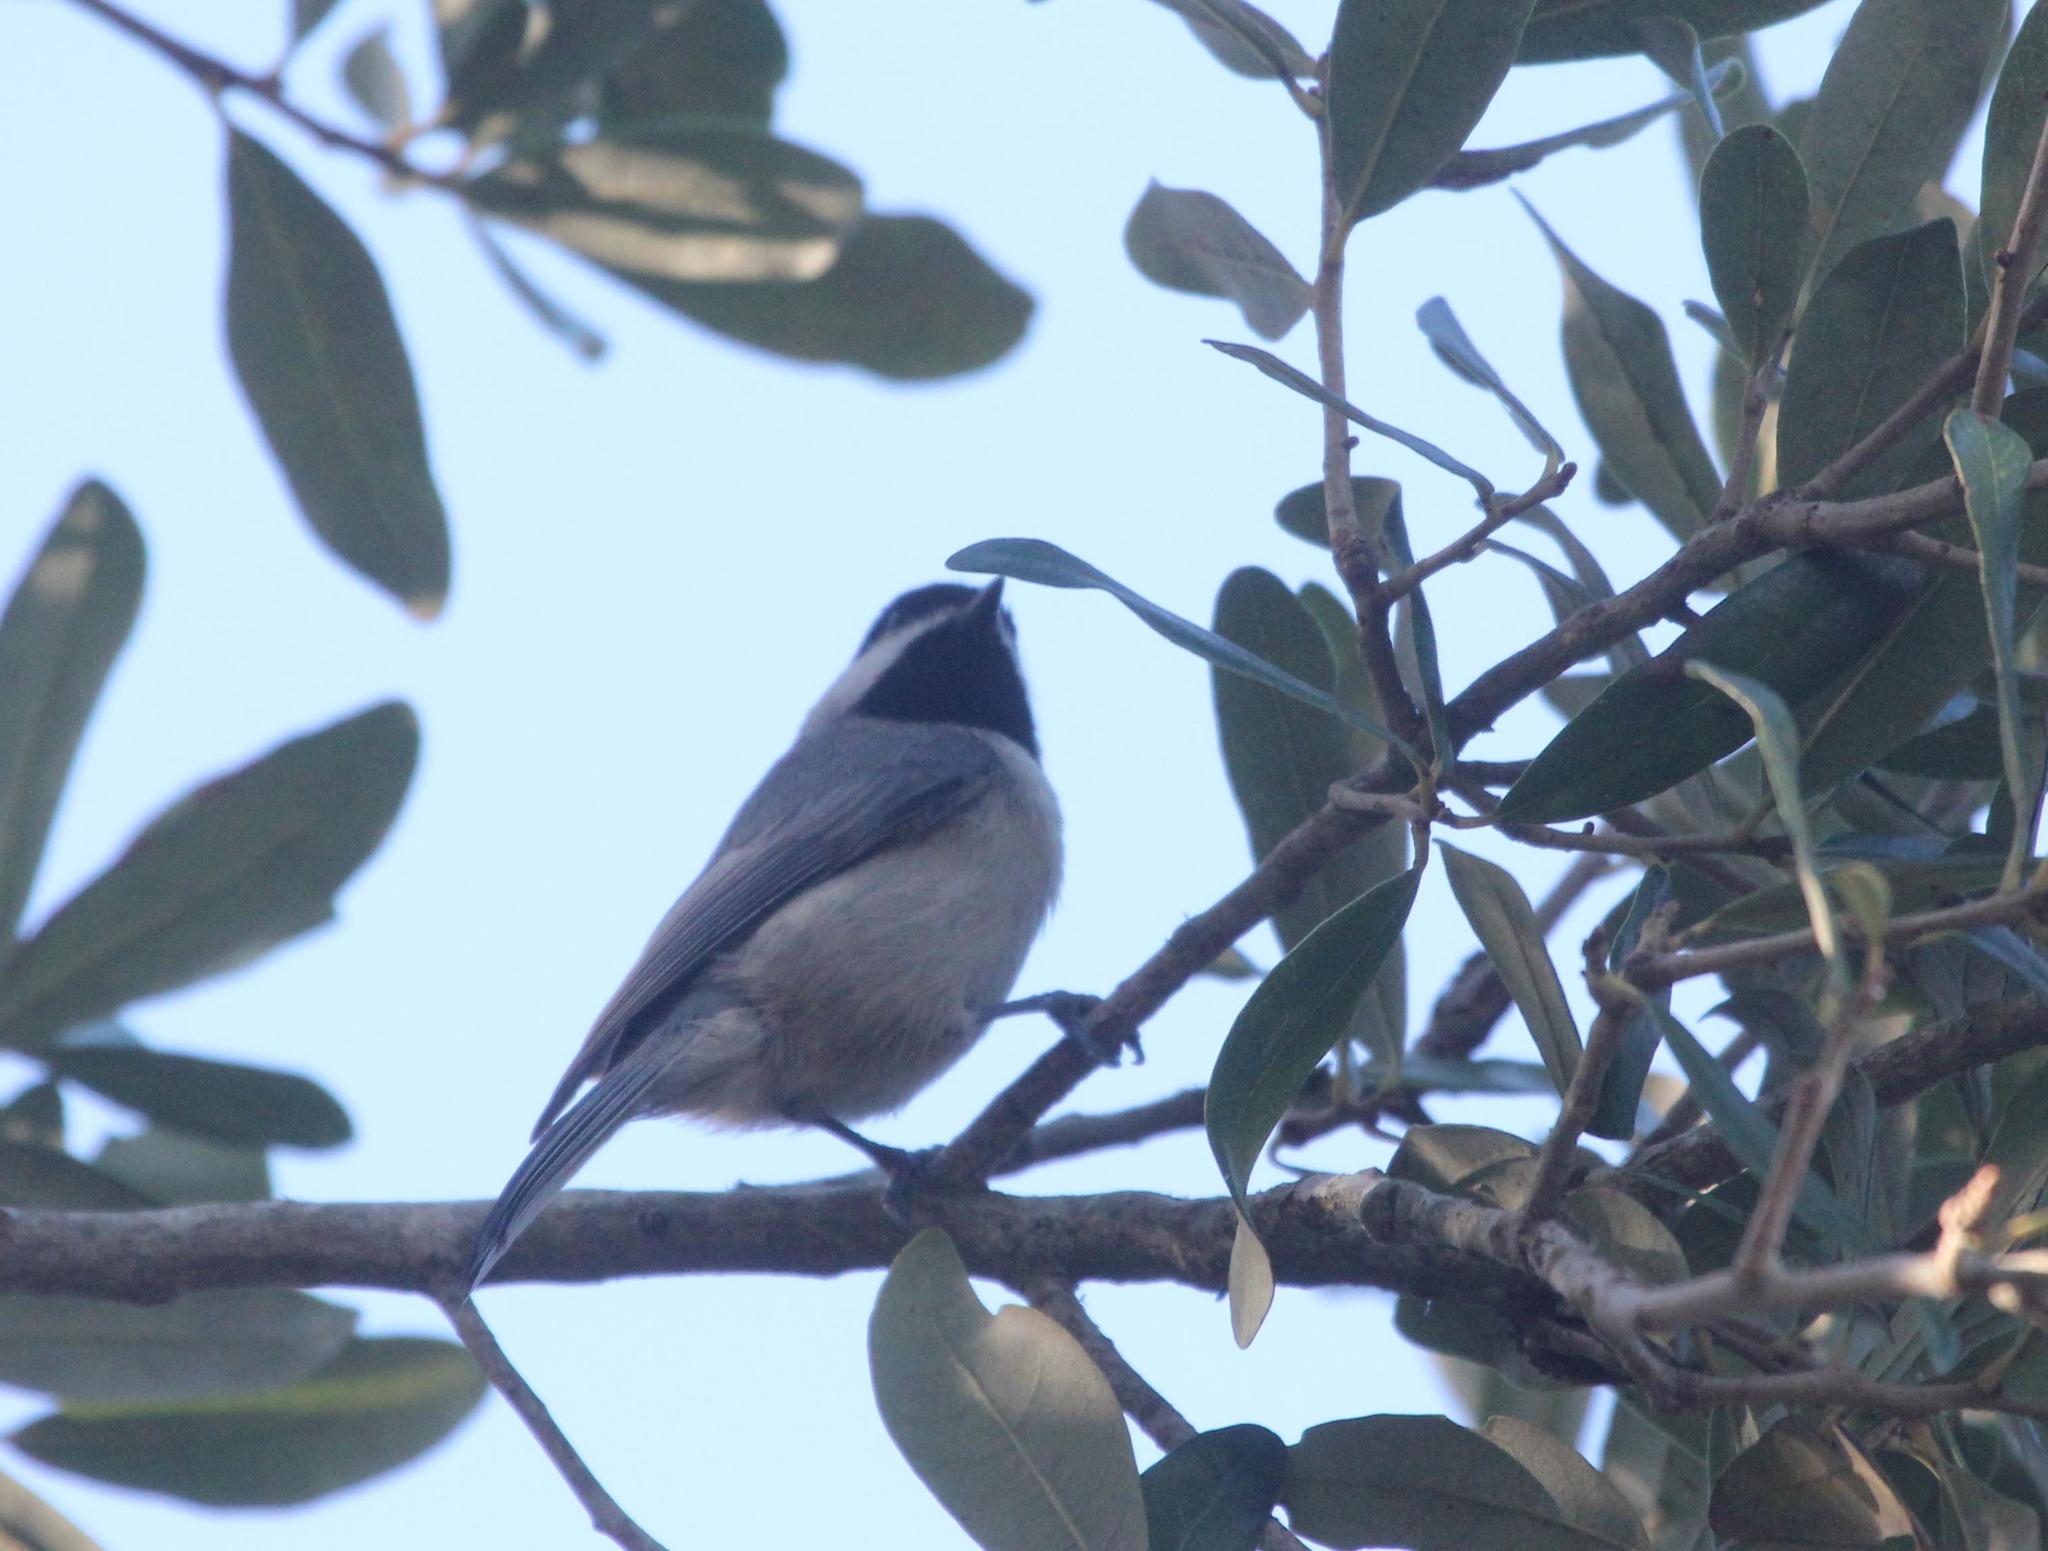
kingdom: Animalia
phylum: Chordata
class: Aves
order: Passeriformes
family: Paridae
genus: Poecile
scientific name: Poecile carolinensis
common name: Carolina chickadee
